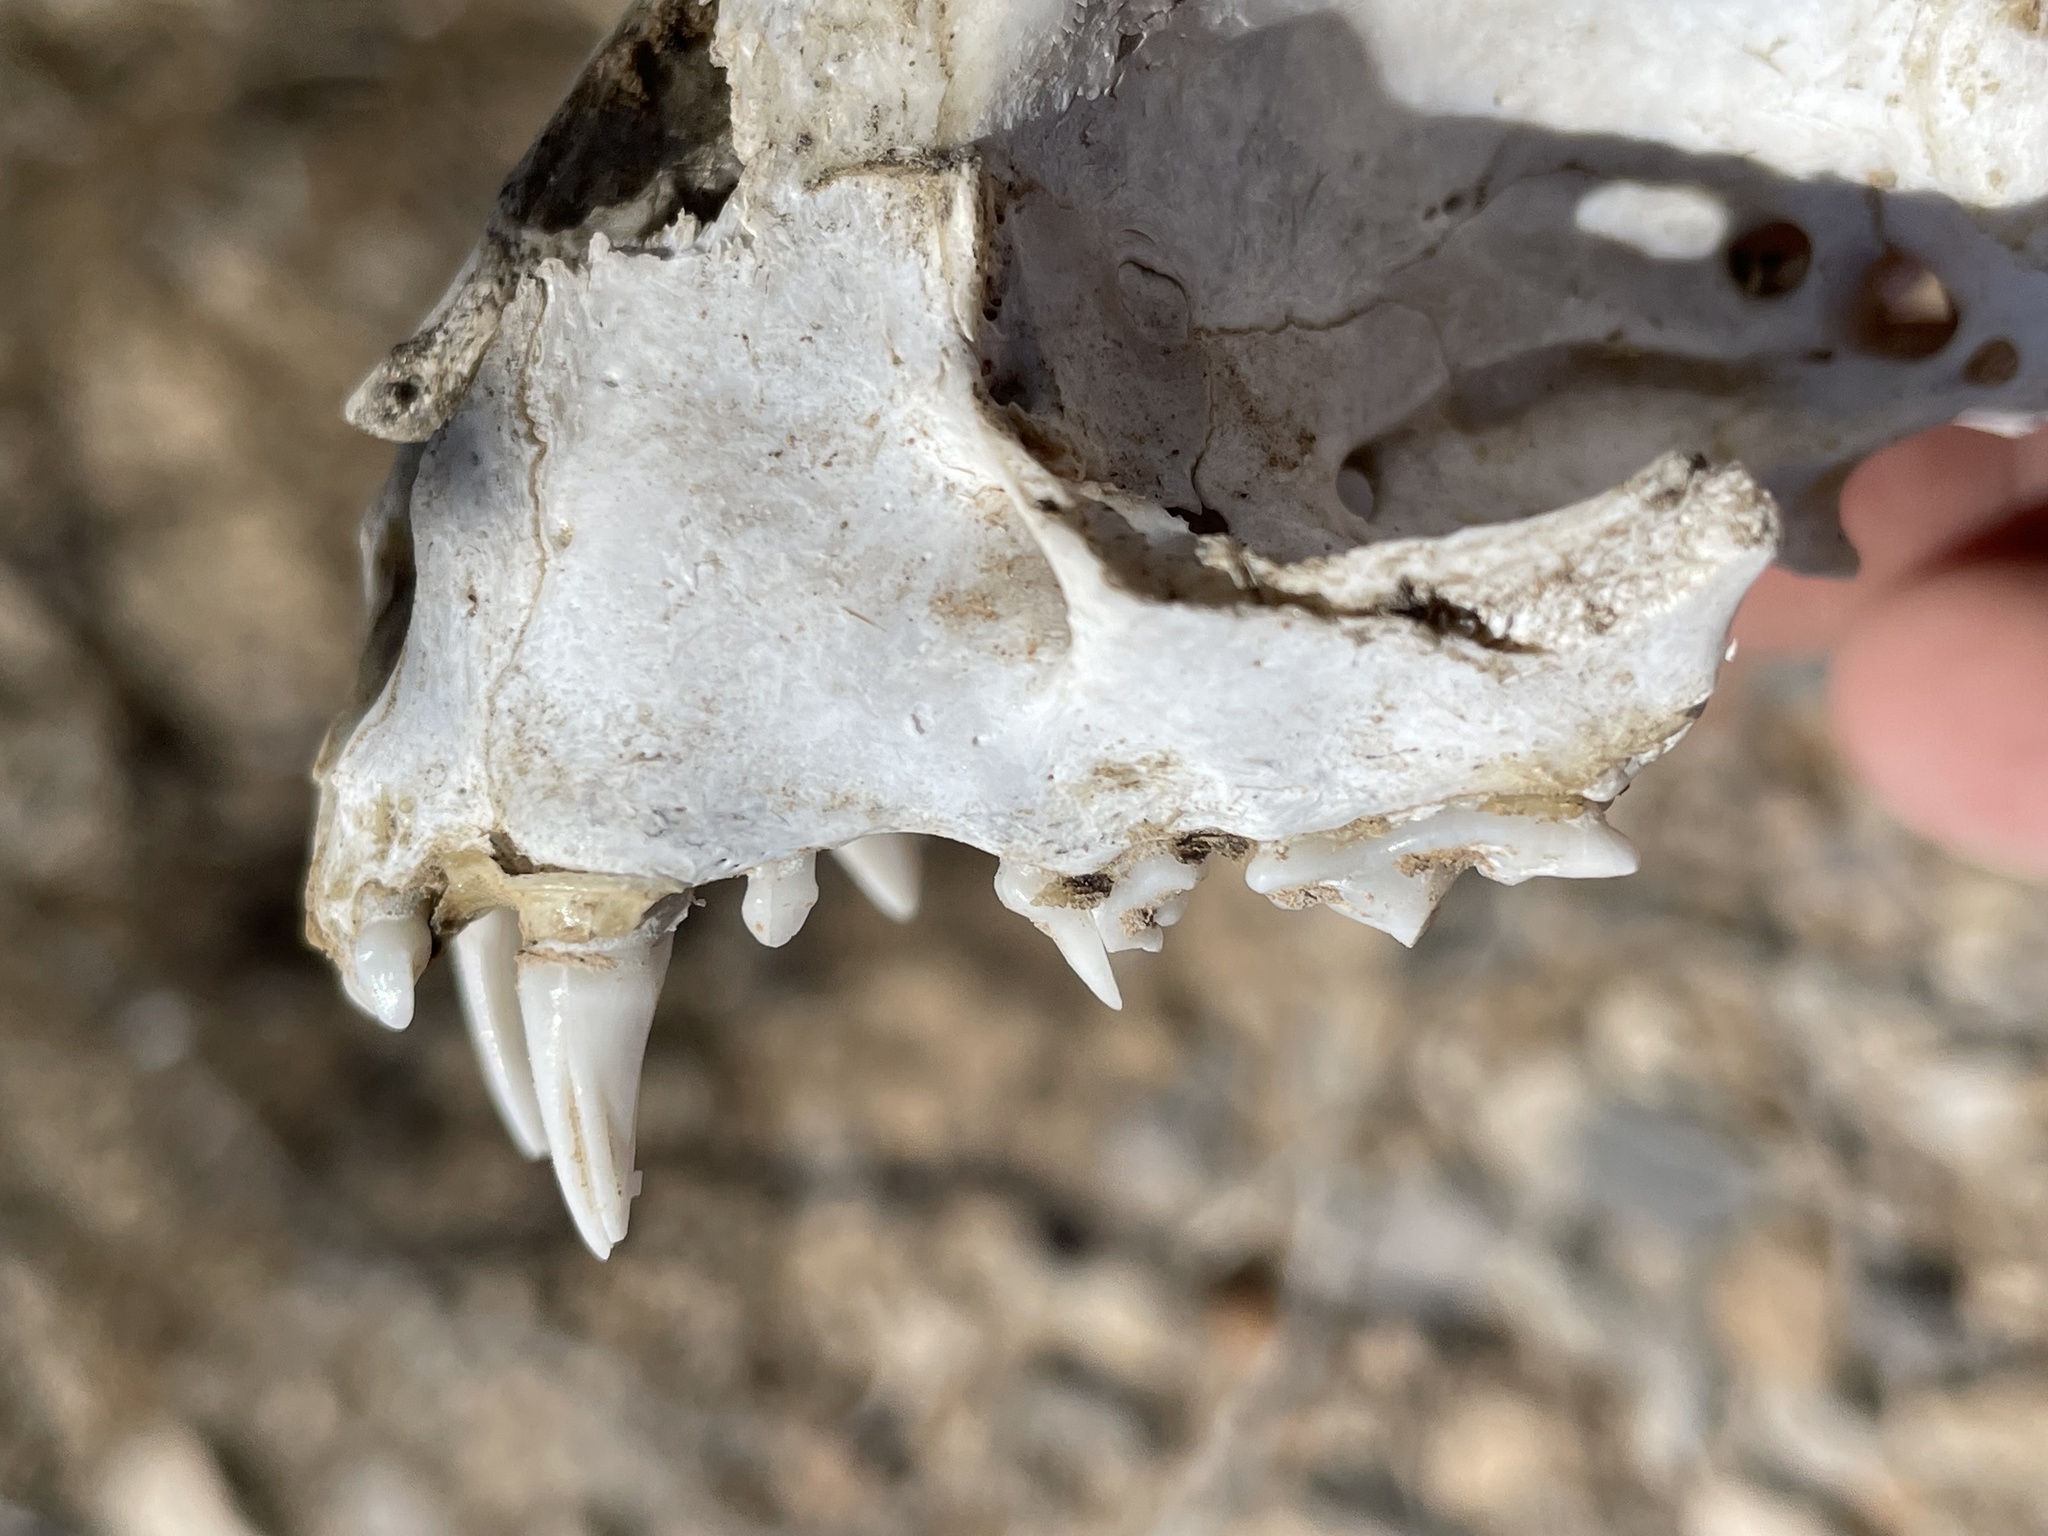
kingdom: Animalia
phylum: Chordata
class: Mammalia
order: Carnivora
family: Felidae
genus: Felis
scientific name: Felis catus
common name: Domestic cat
